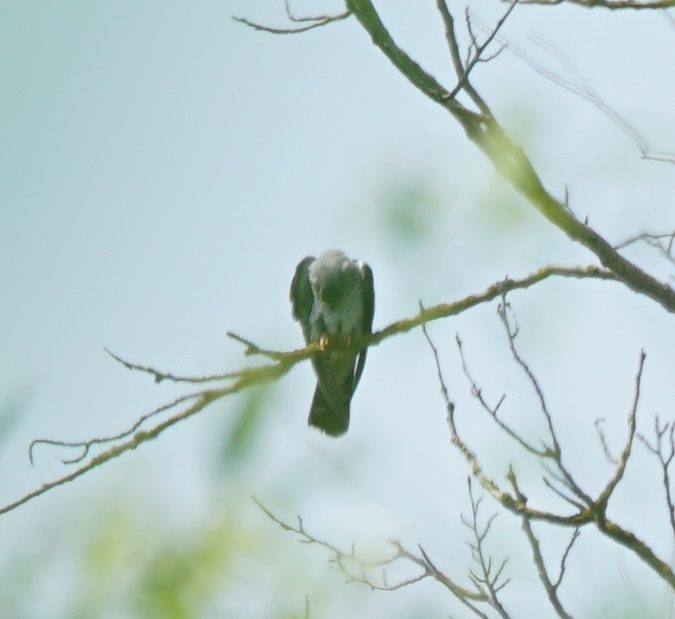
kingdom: Animalia
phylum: Chordata
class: Aves
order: Cuculiformes
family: Cuculidae
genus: Cuculus
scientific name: Cuculus canorus
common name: Common cuckoo
